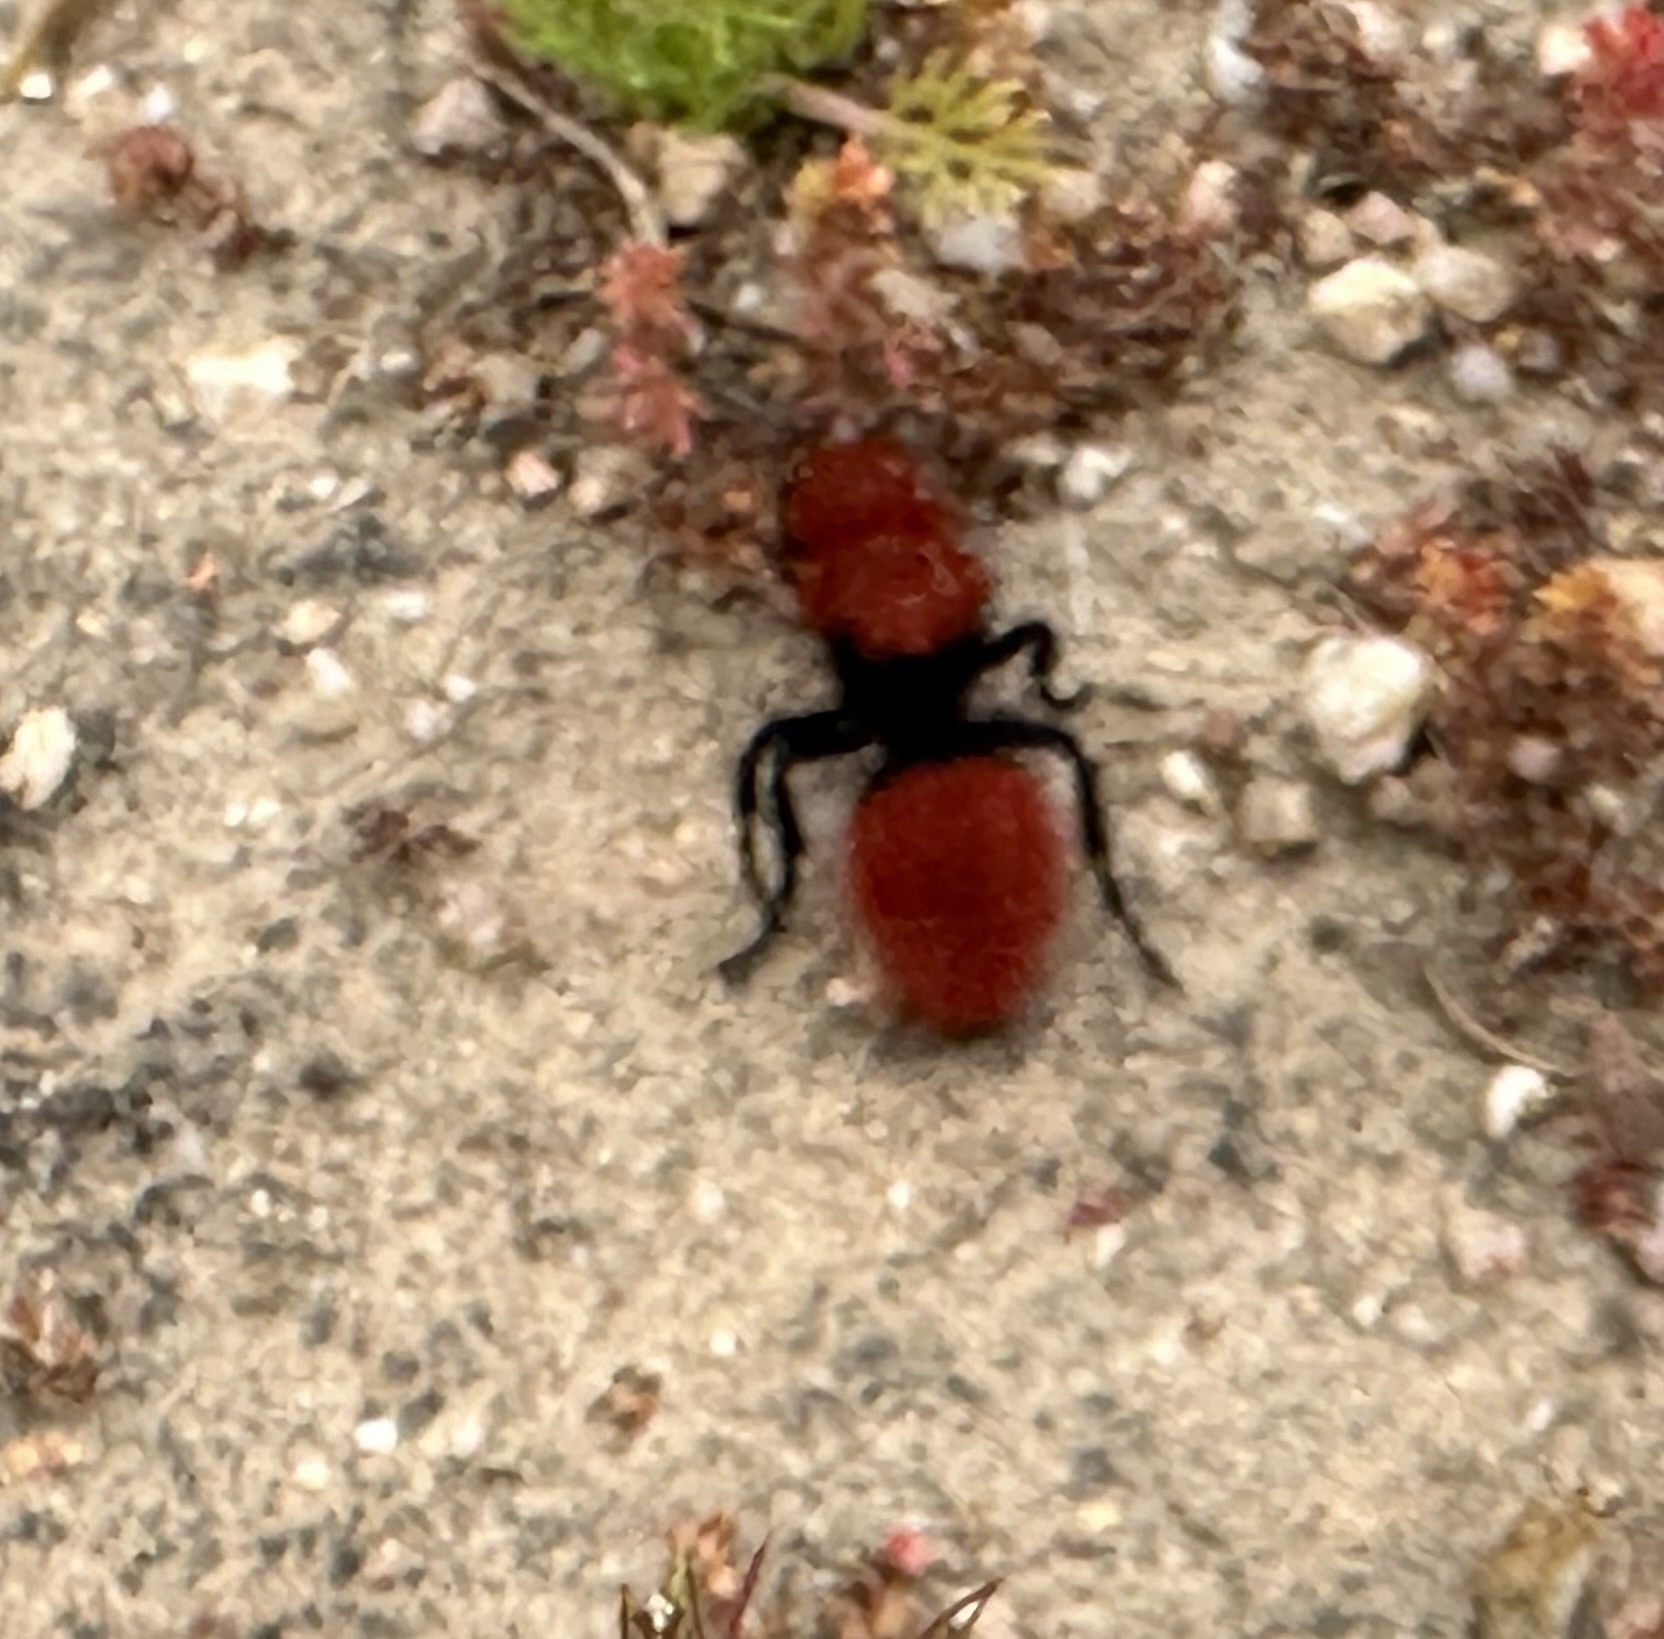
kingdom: Animalia
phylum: Arthropoda
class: Insecta
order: Hymenoptera
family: Mutillidae
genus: Dasymutilla
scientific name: Dasymutilla
